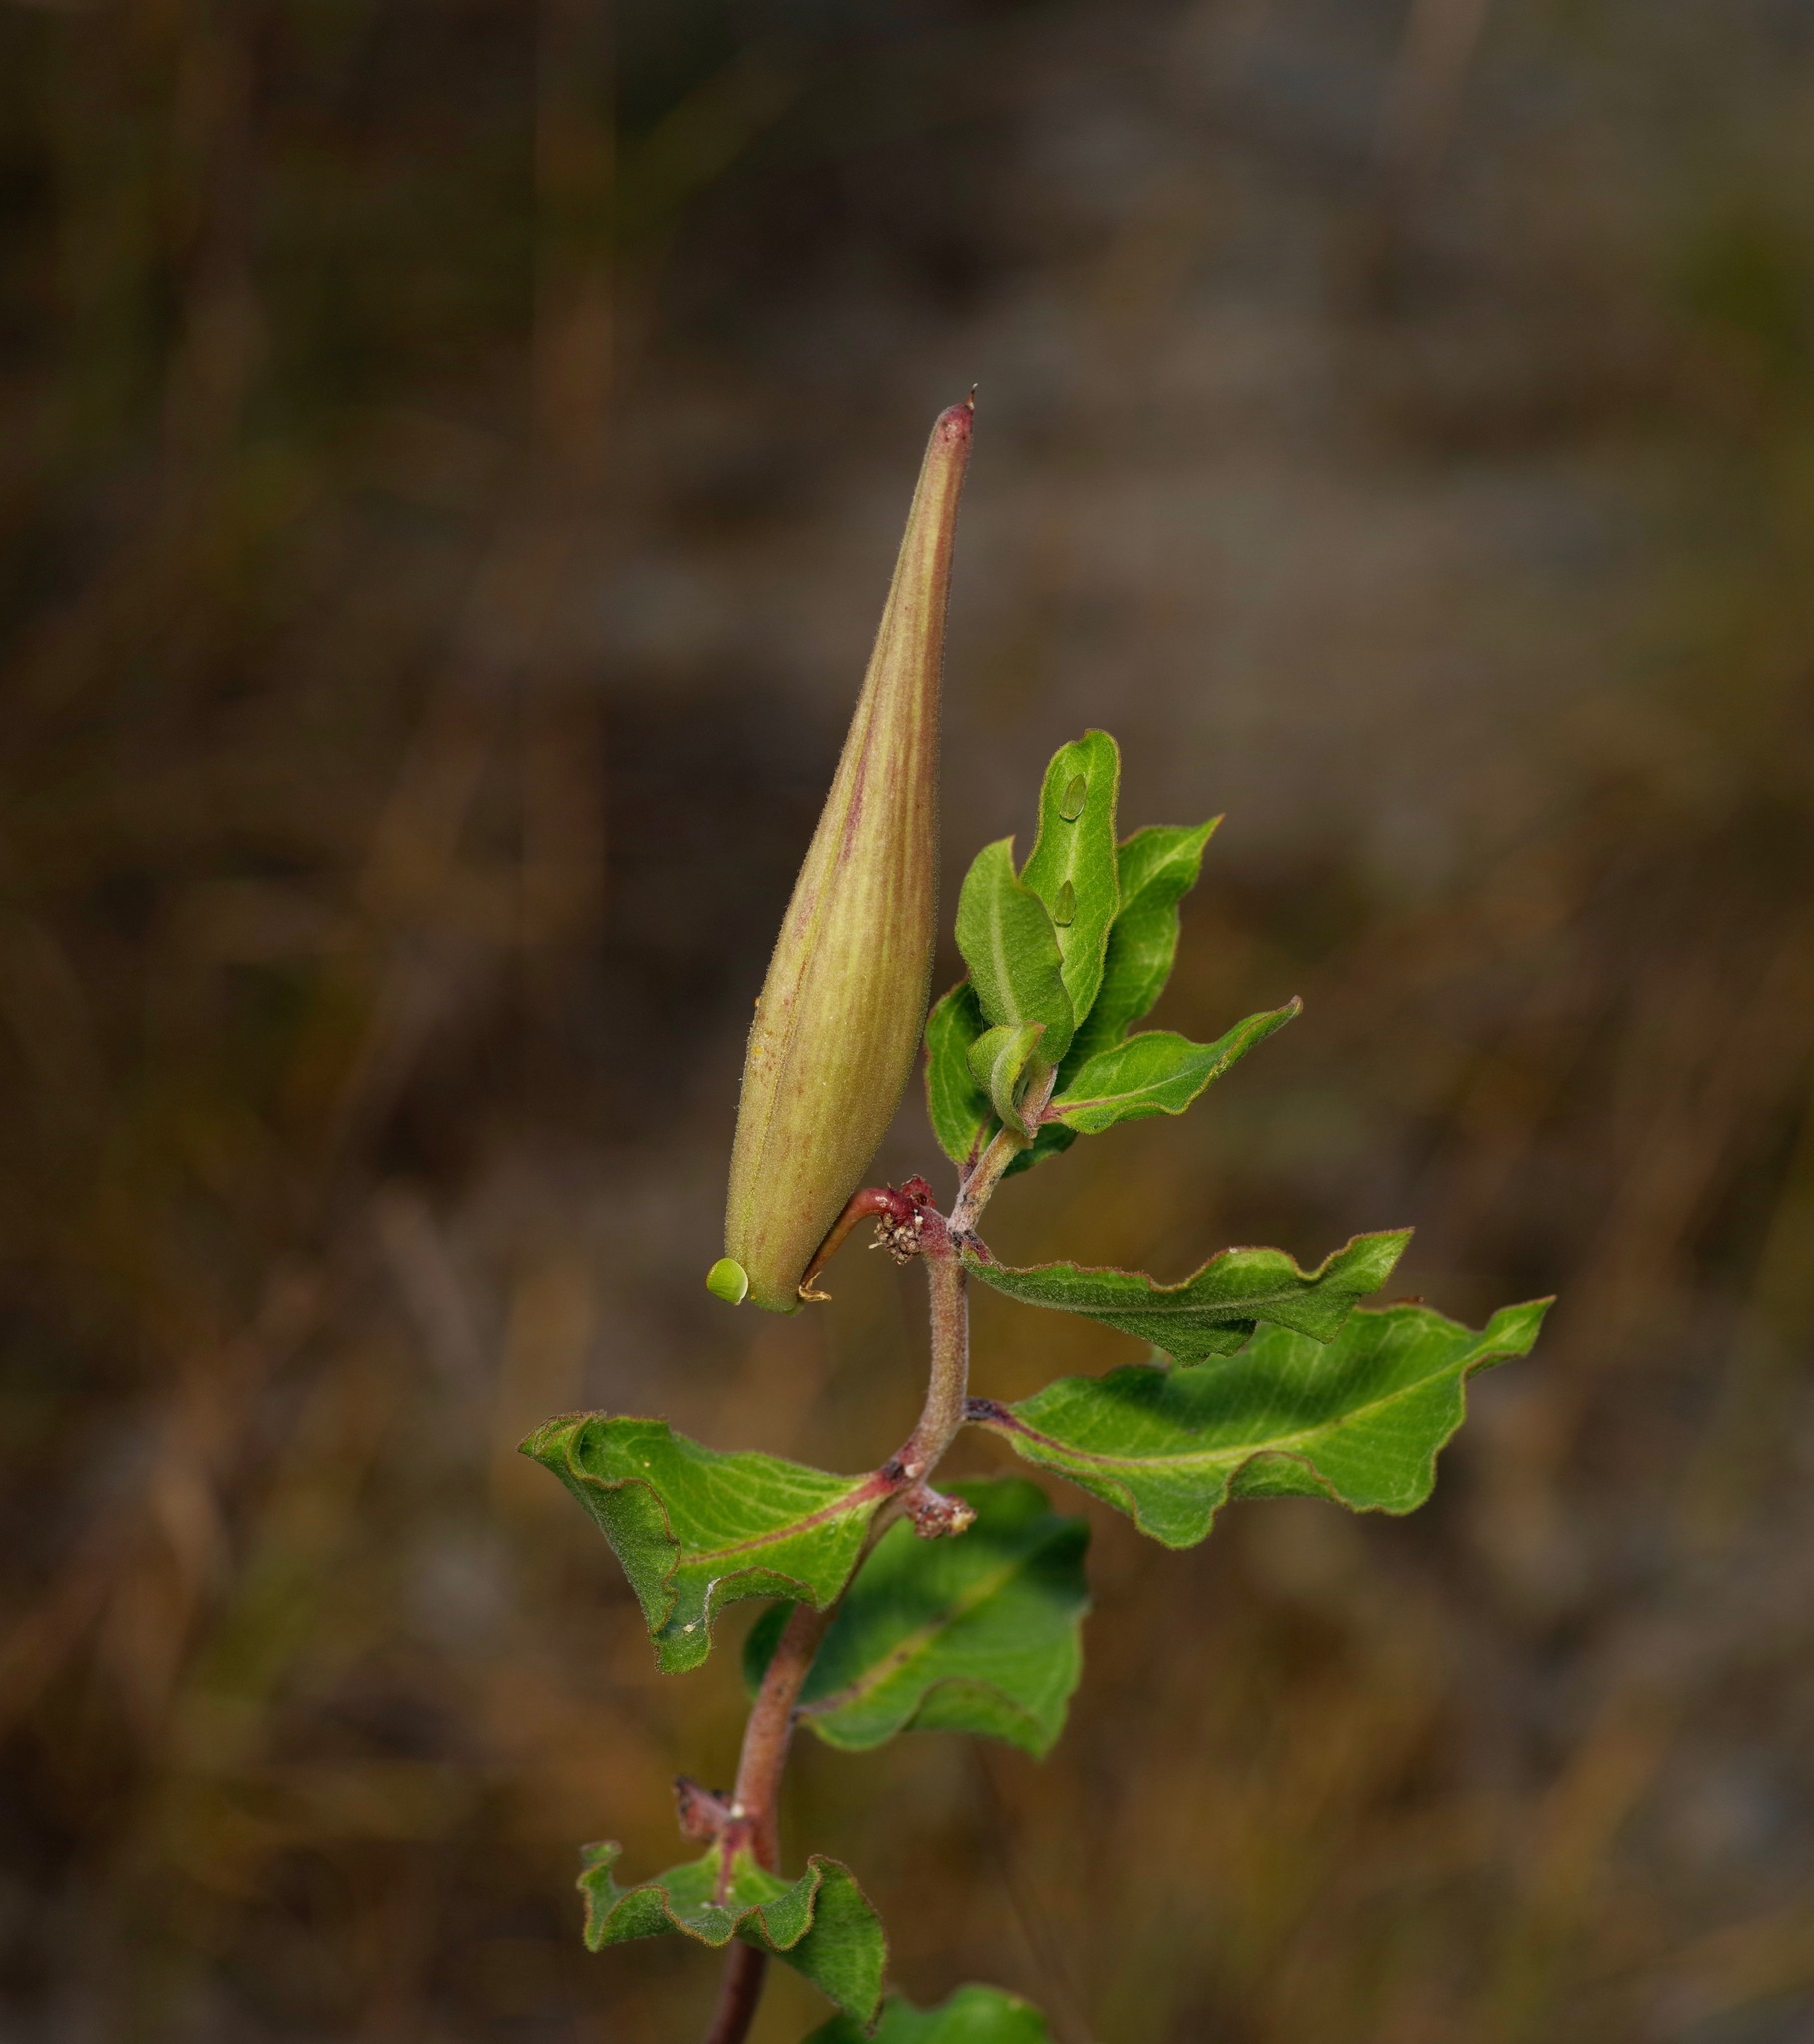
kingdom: Plantae
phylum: Tracheophyta
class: Magnoliopsida
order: Gentianales
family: Apocynaceae
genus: Asclepias
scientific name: Asclepias viridiflora
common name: Green comet milkweed
